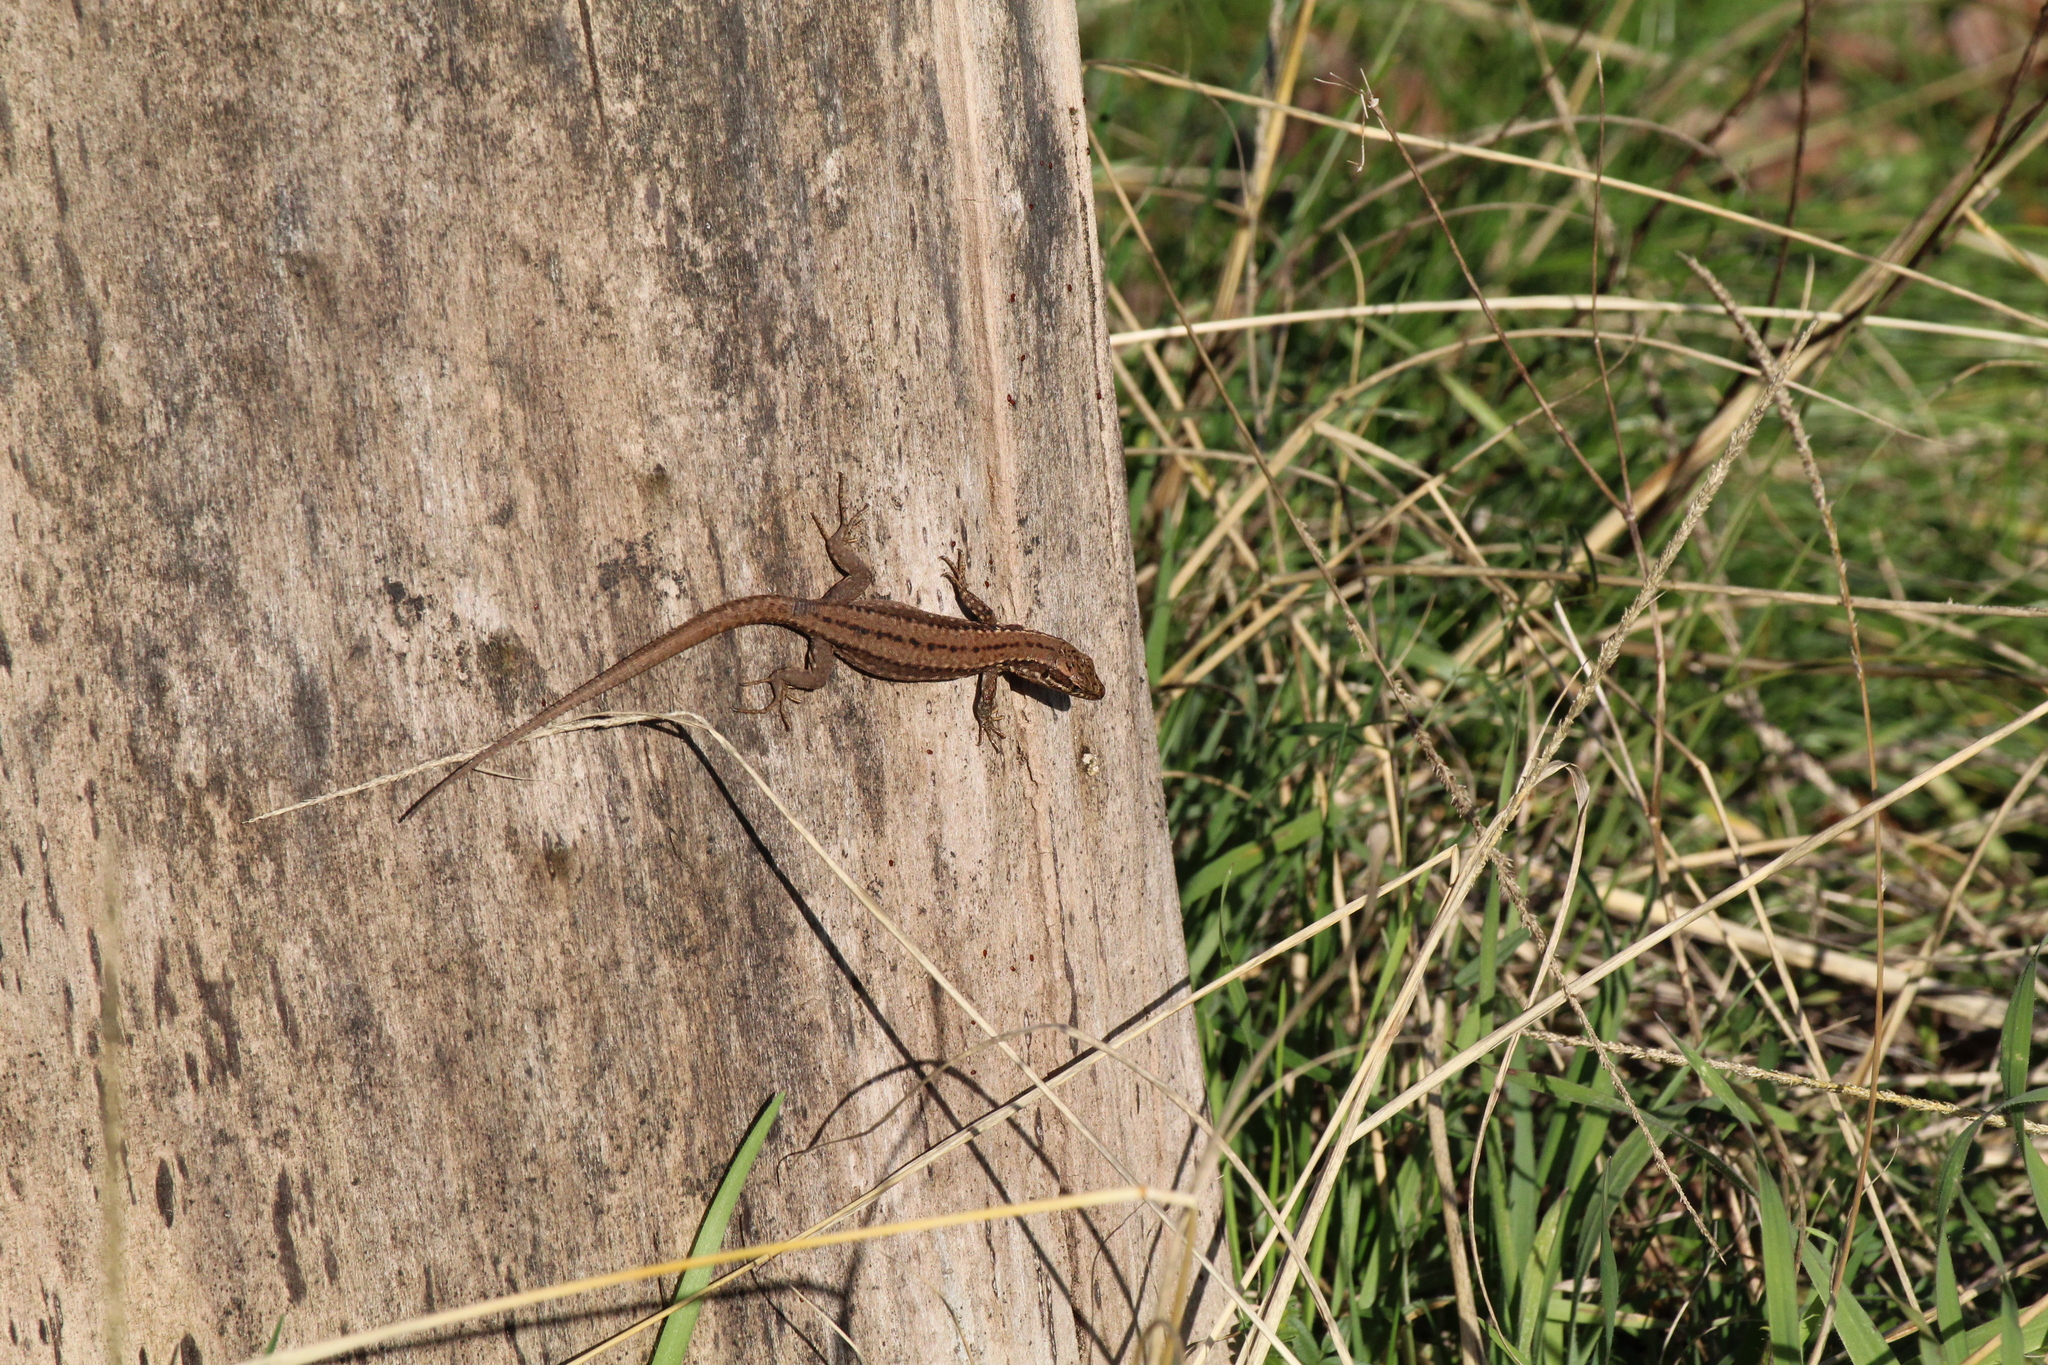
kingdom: Animalia
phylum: Chordata
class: Squamata
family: Lacertidae
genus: Podarcis
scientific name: Podarcis muralis
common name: Common wall lizard
